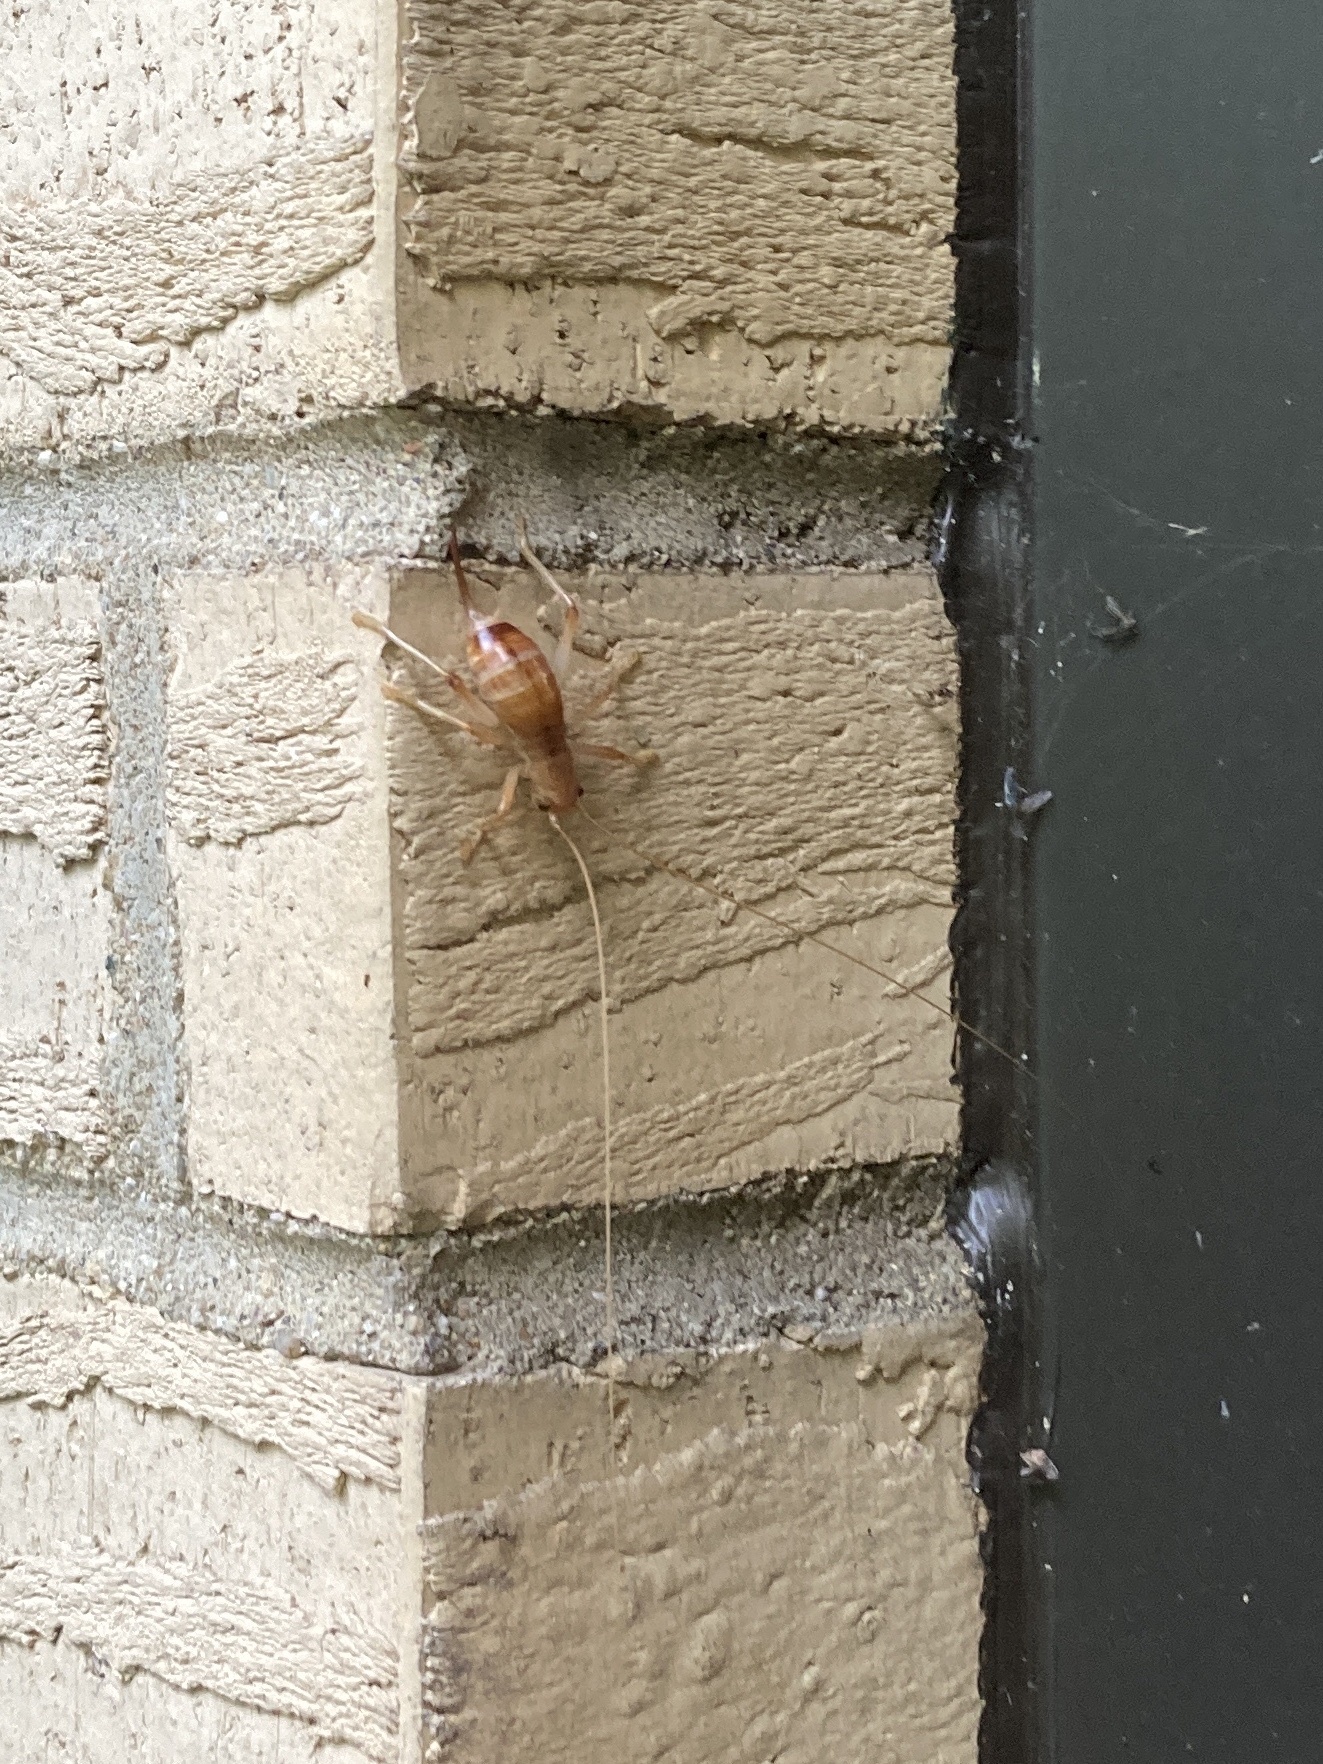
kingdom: Animalia
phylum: Arthropoda
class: Insecta
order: Orthoptera
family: Gryllacrididae
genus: Camptonotus
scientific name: Camptonotus carolinensis
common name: Carolina leaf-roller
